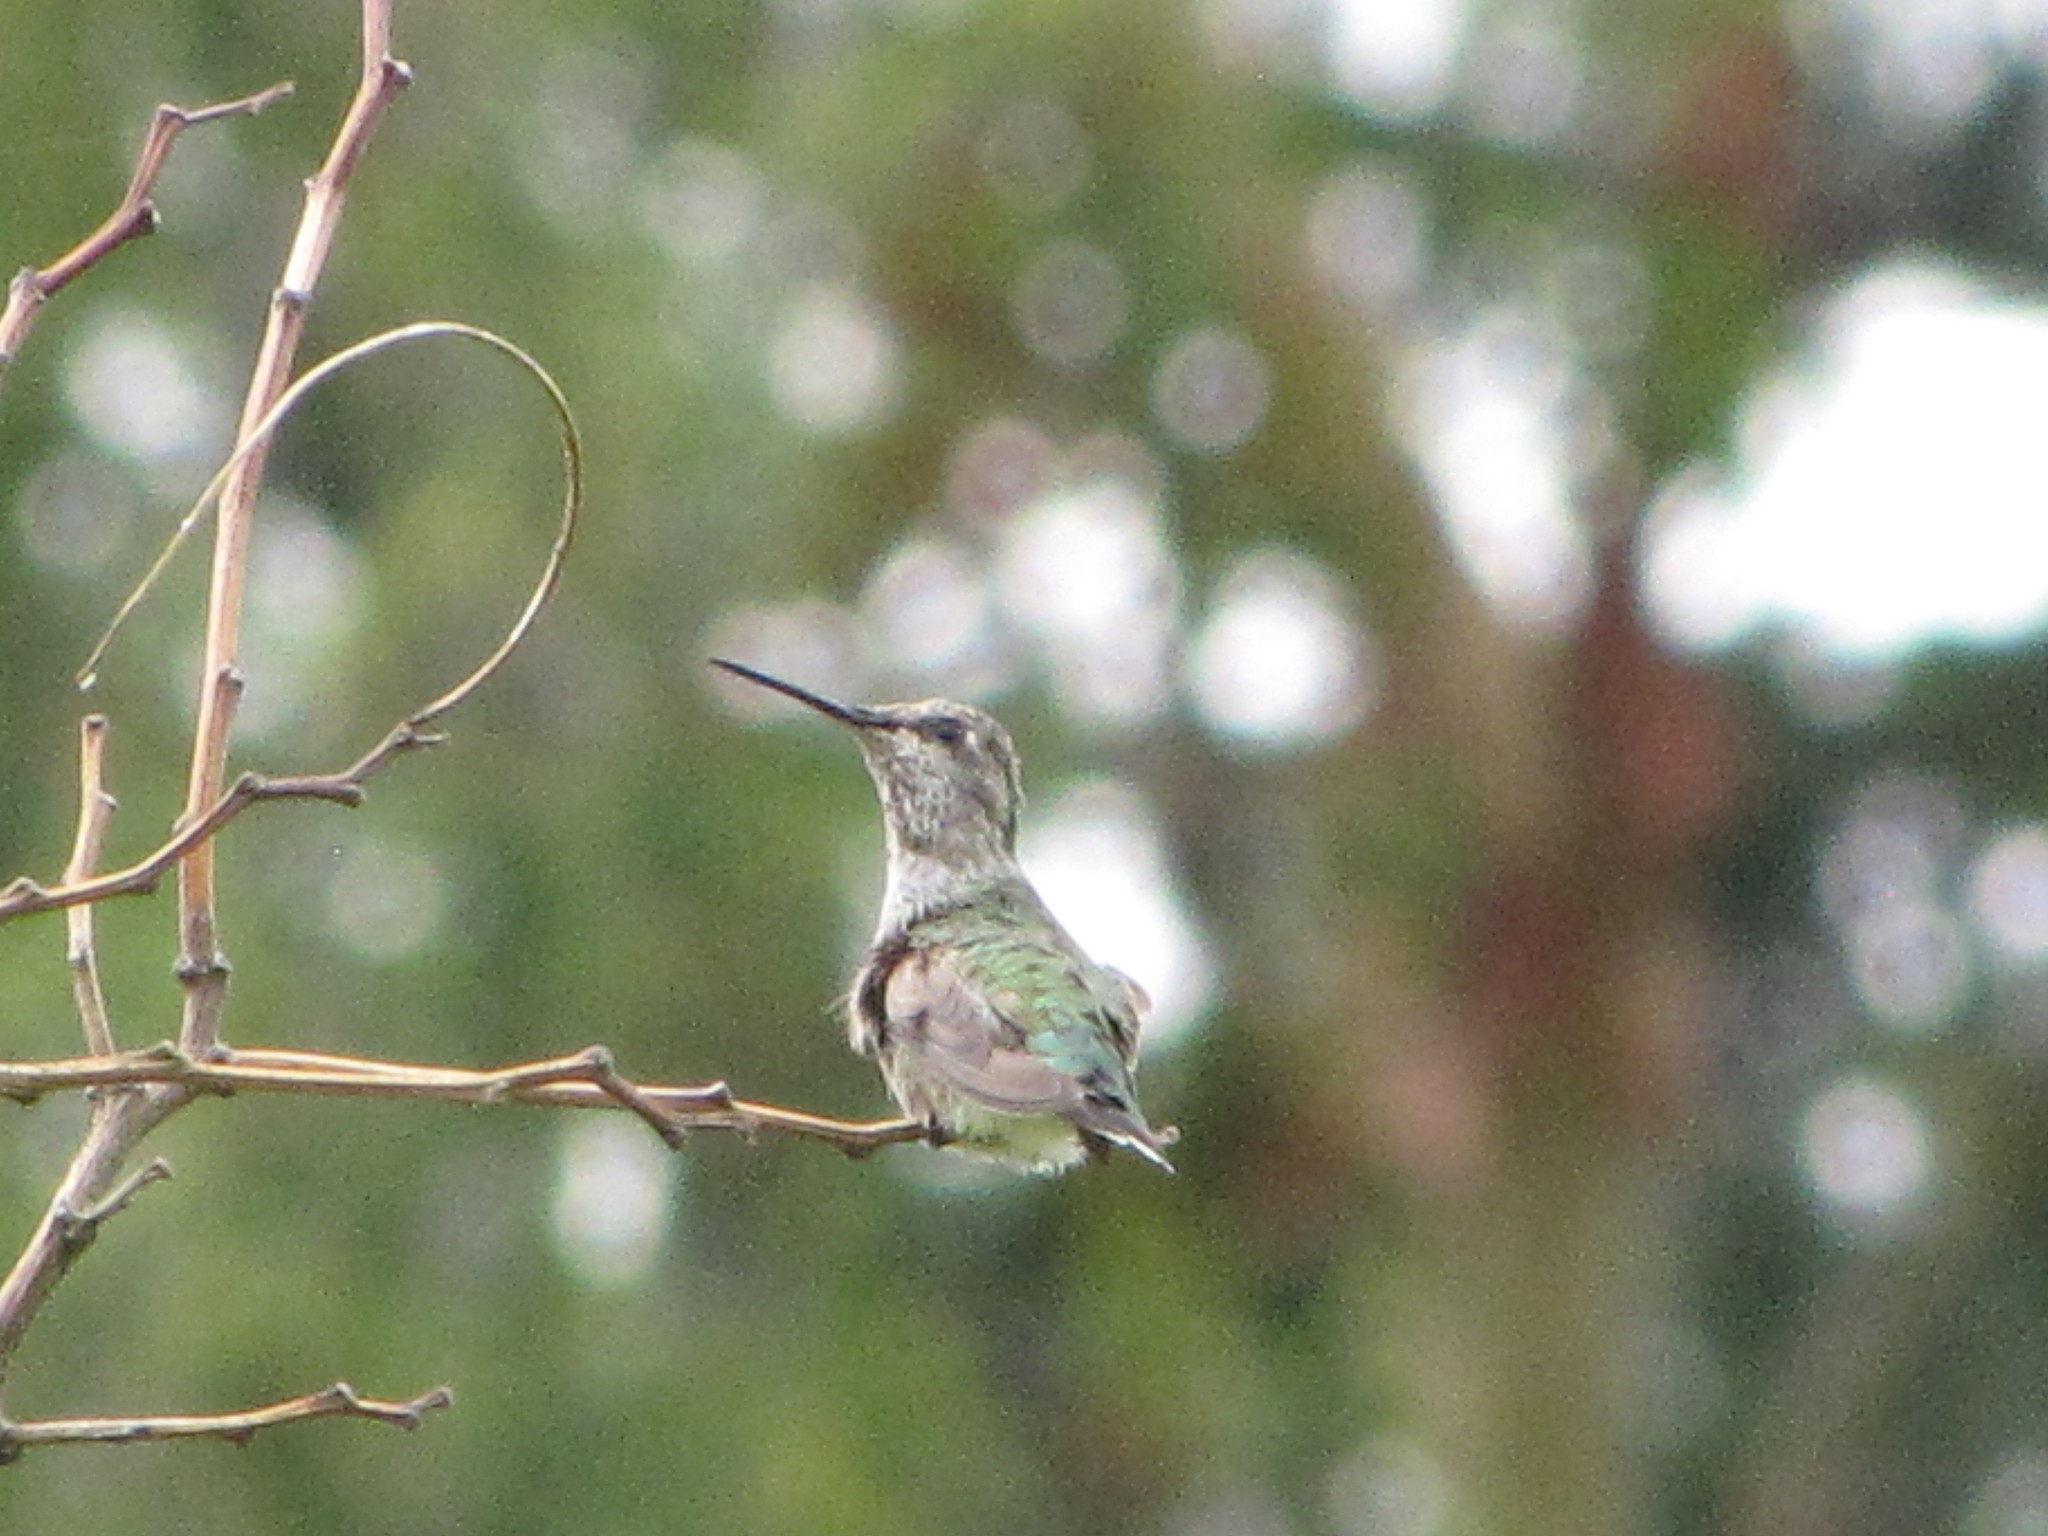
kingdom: Animalia
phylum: Chordata
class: Aves
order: Apodiformes
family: Trochilidae
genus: Calypte
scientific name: Calypte anna
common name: Anna's hummingbird
